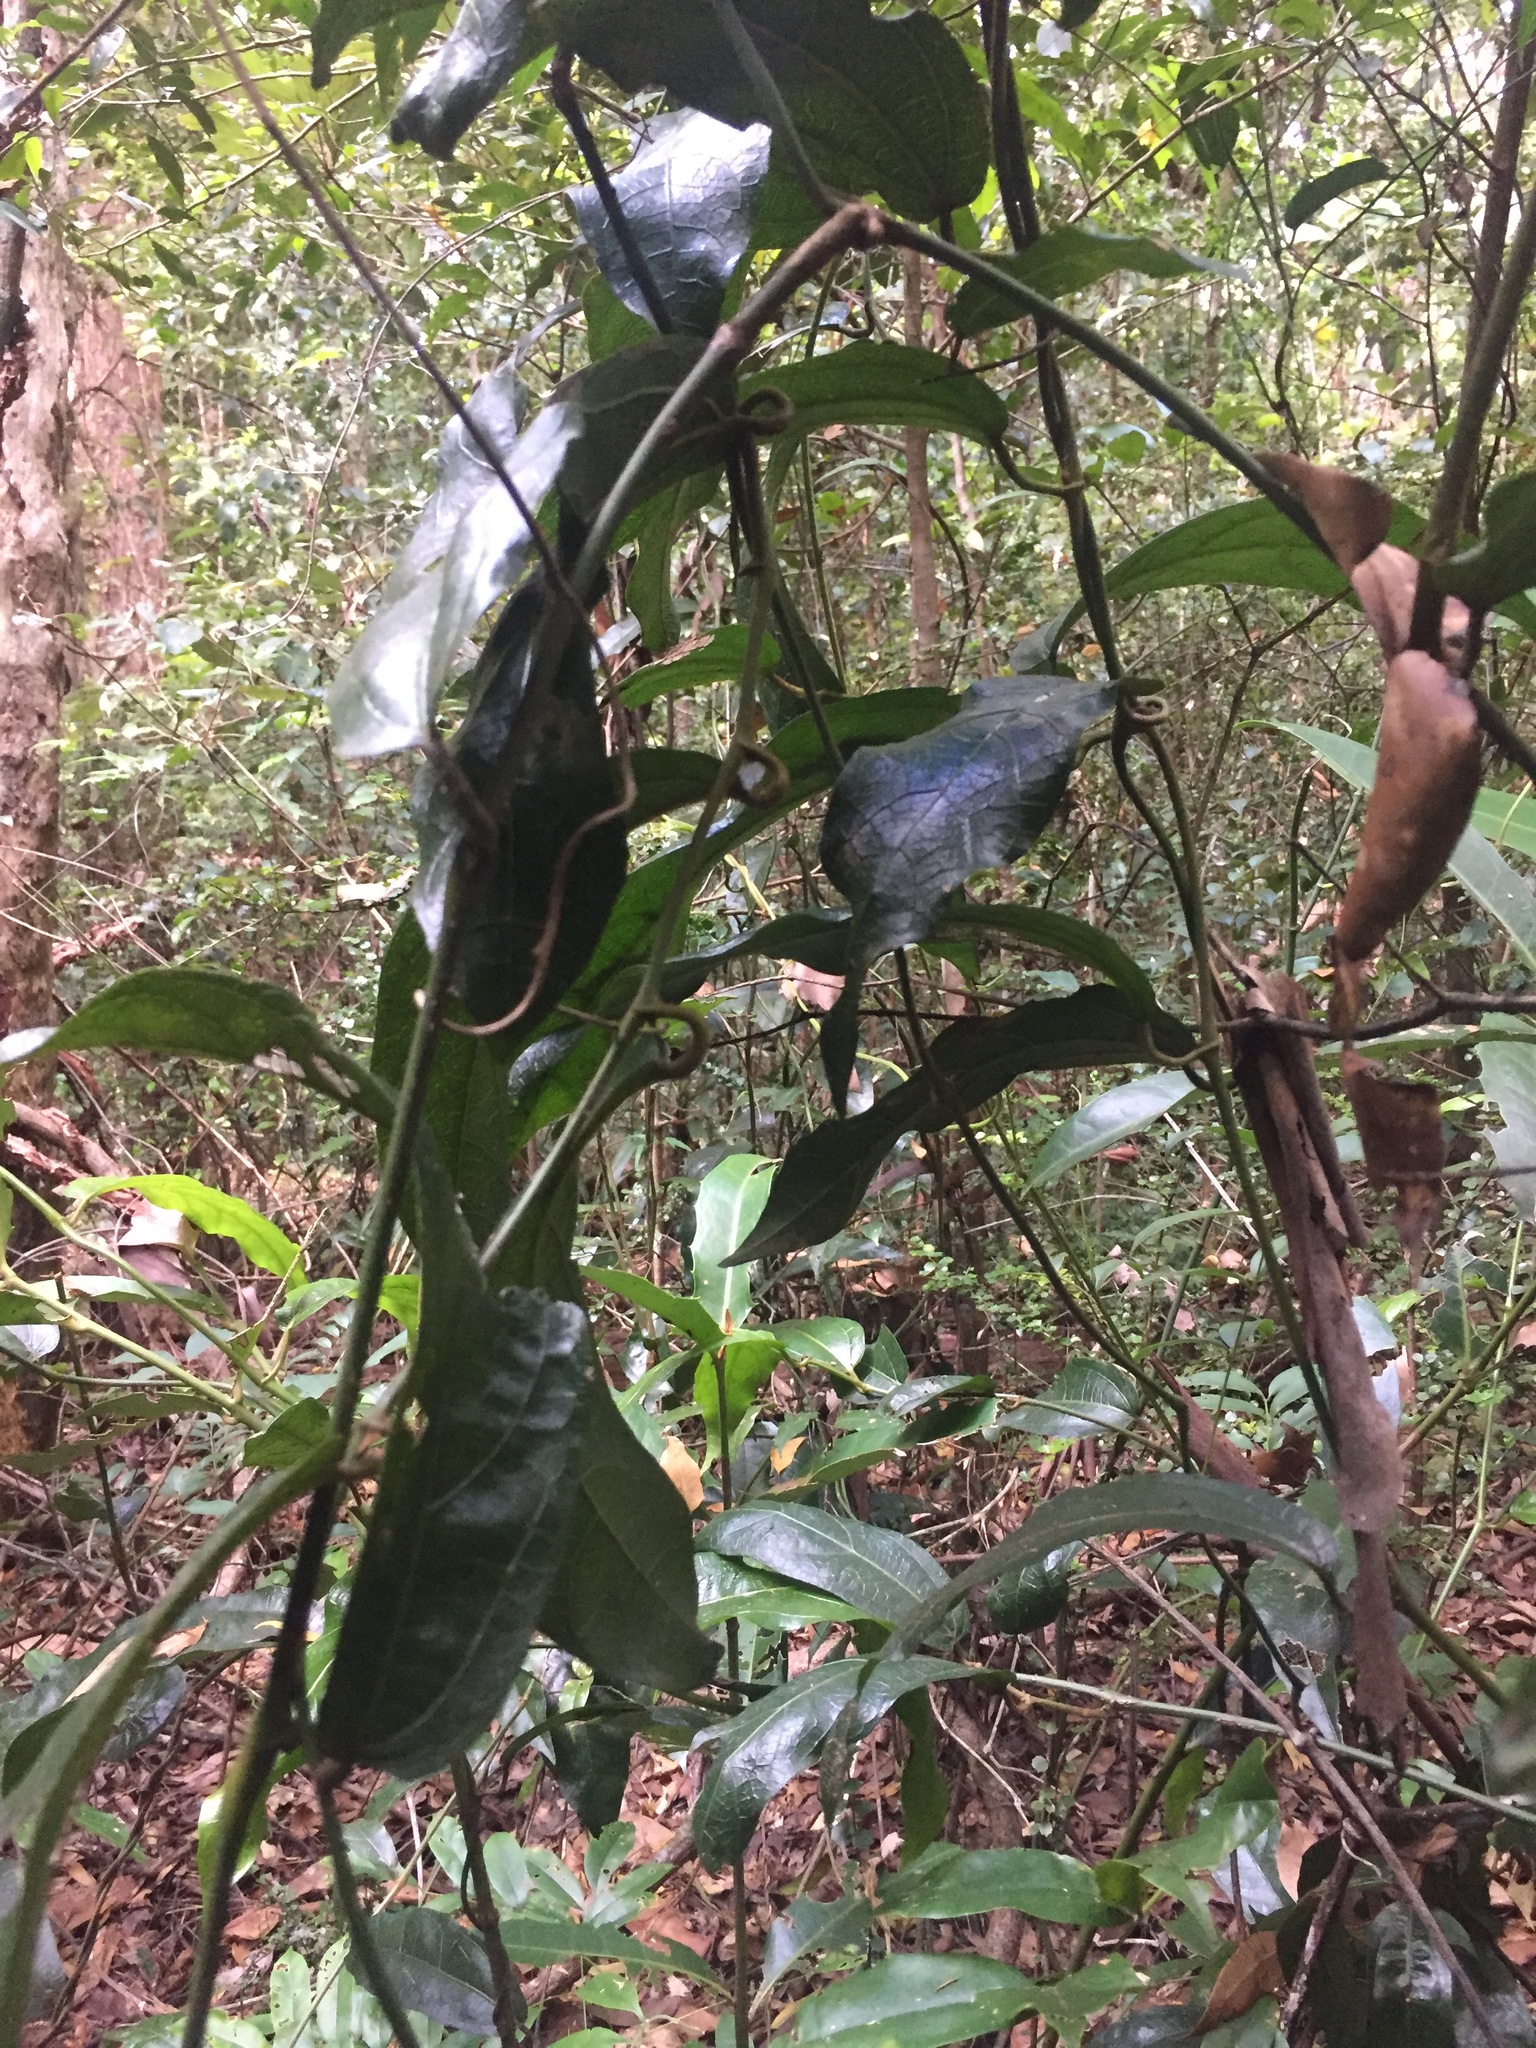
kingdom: Plantae
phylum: Tracheophyta
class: Magnoliopsida
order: Piperales
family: Aristolochiaceae
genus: Aristolochia
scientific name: Aristolochia praevenosa
